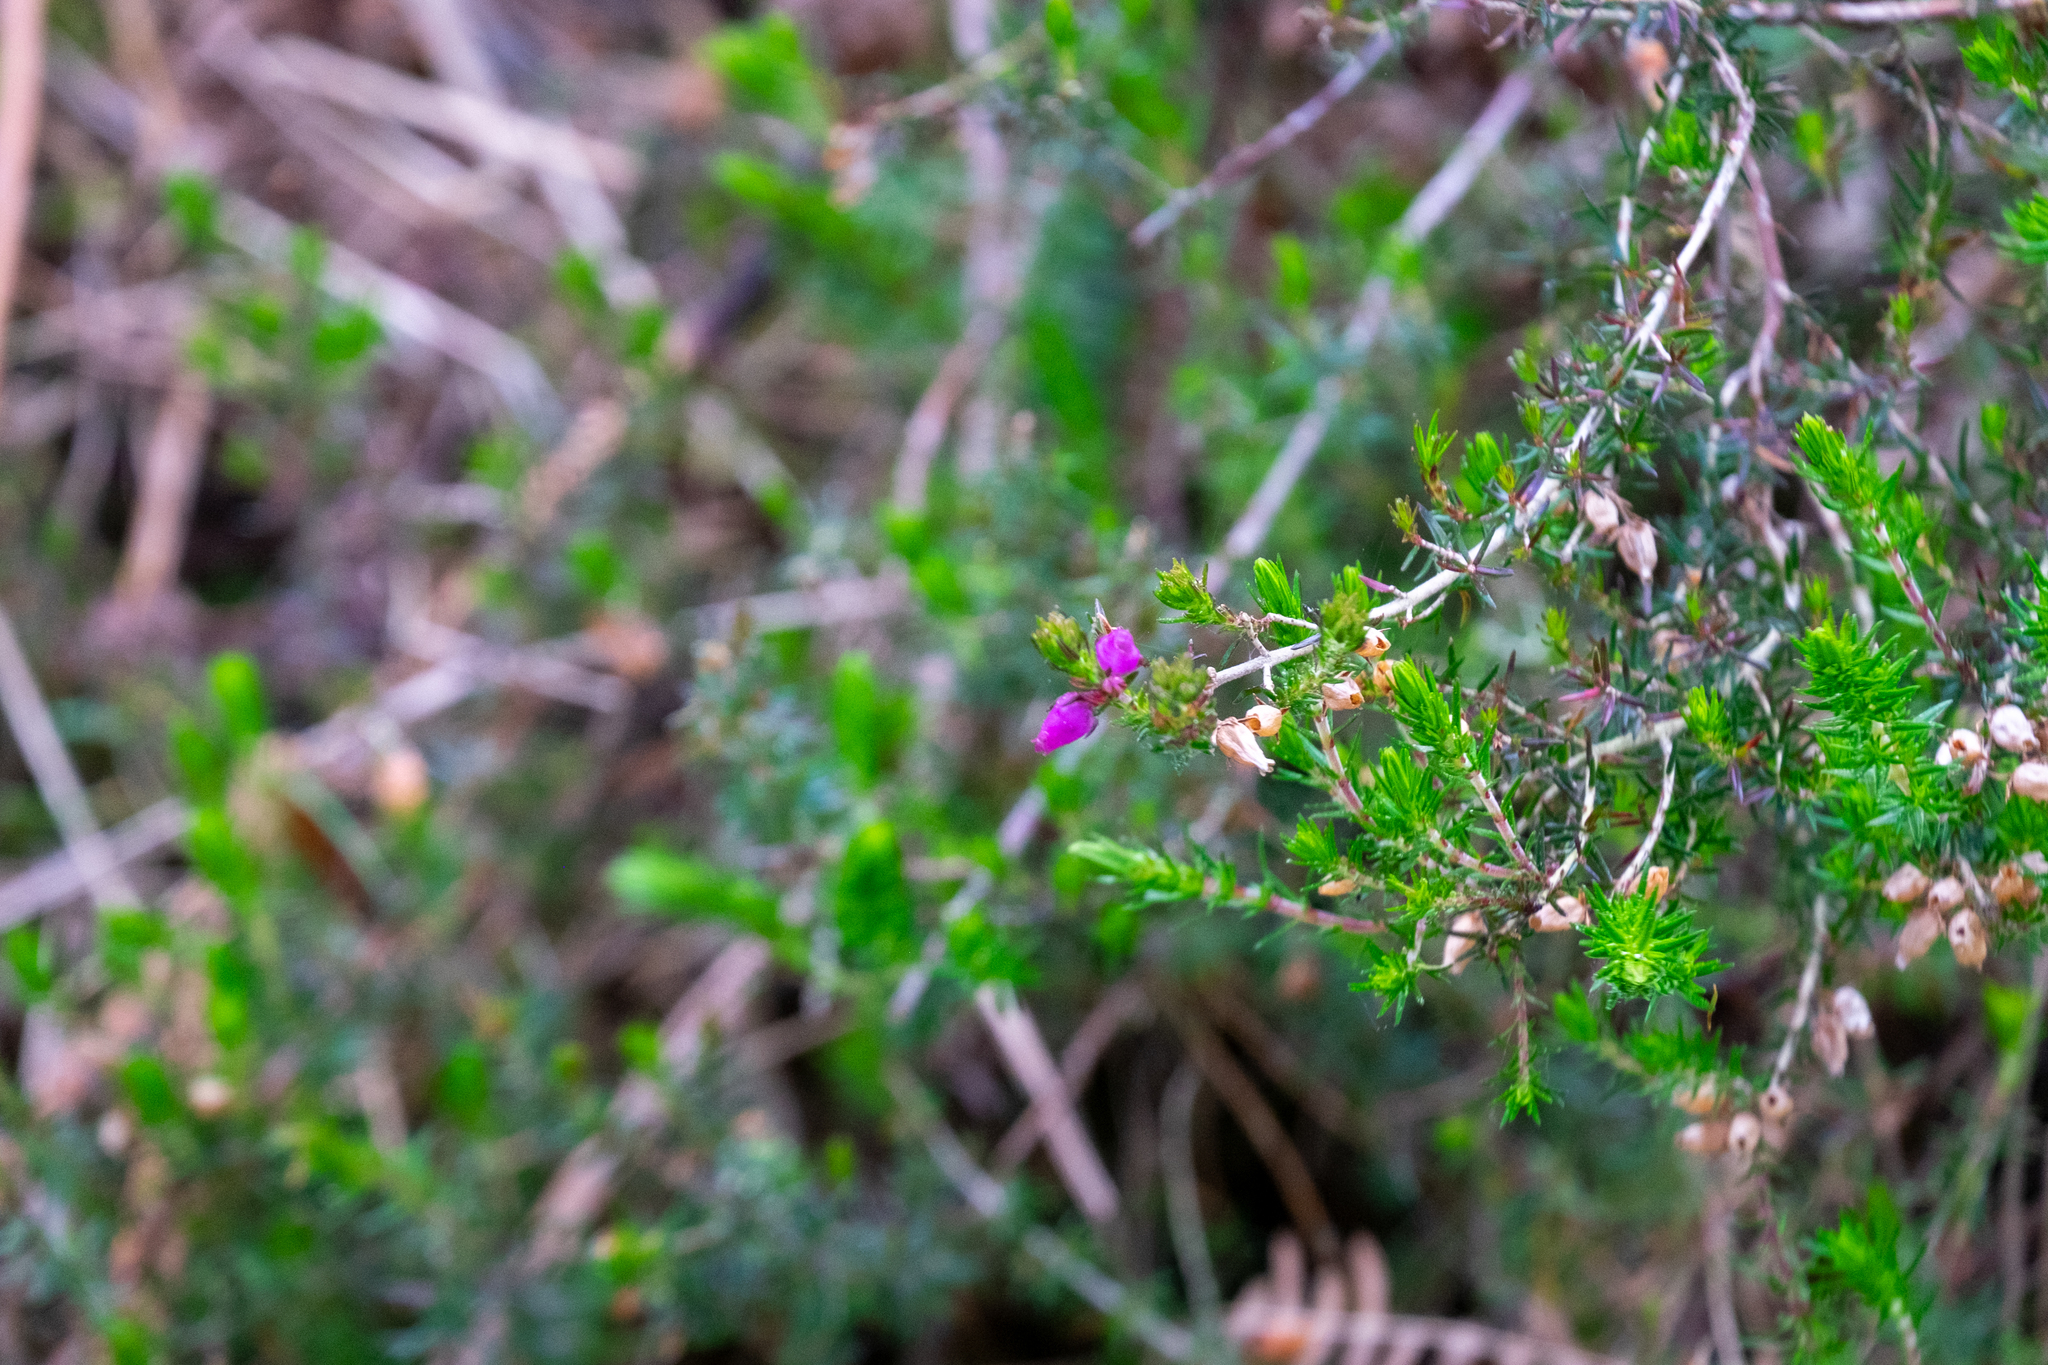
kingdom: Plantae
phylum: Tracheophyta
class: Magnoliopsida
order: Ericales
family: Ericaceae
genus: Erica
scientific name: Erica cinerea
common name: Bell heather
